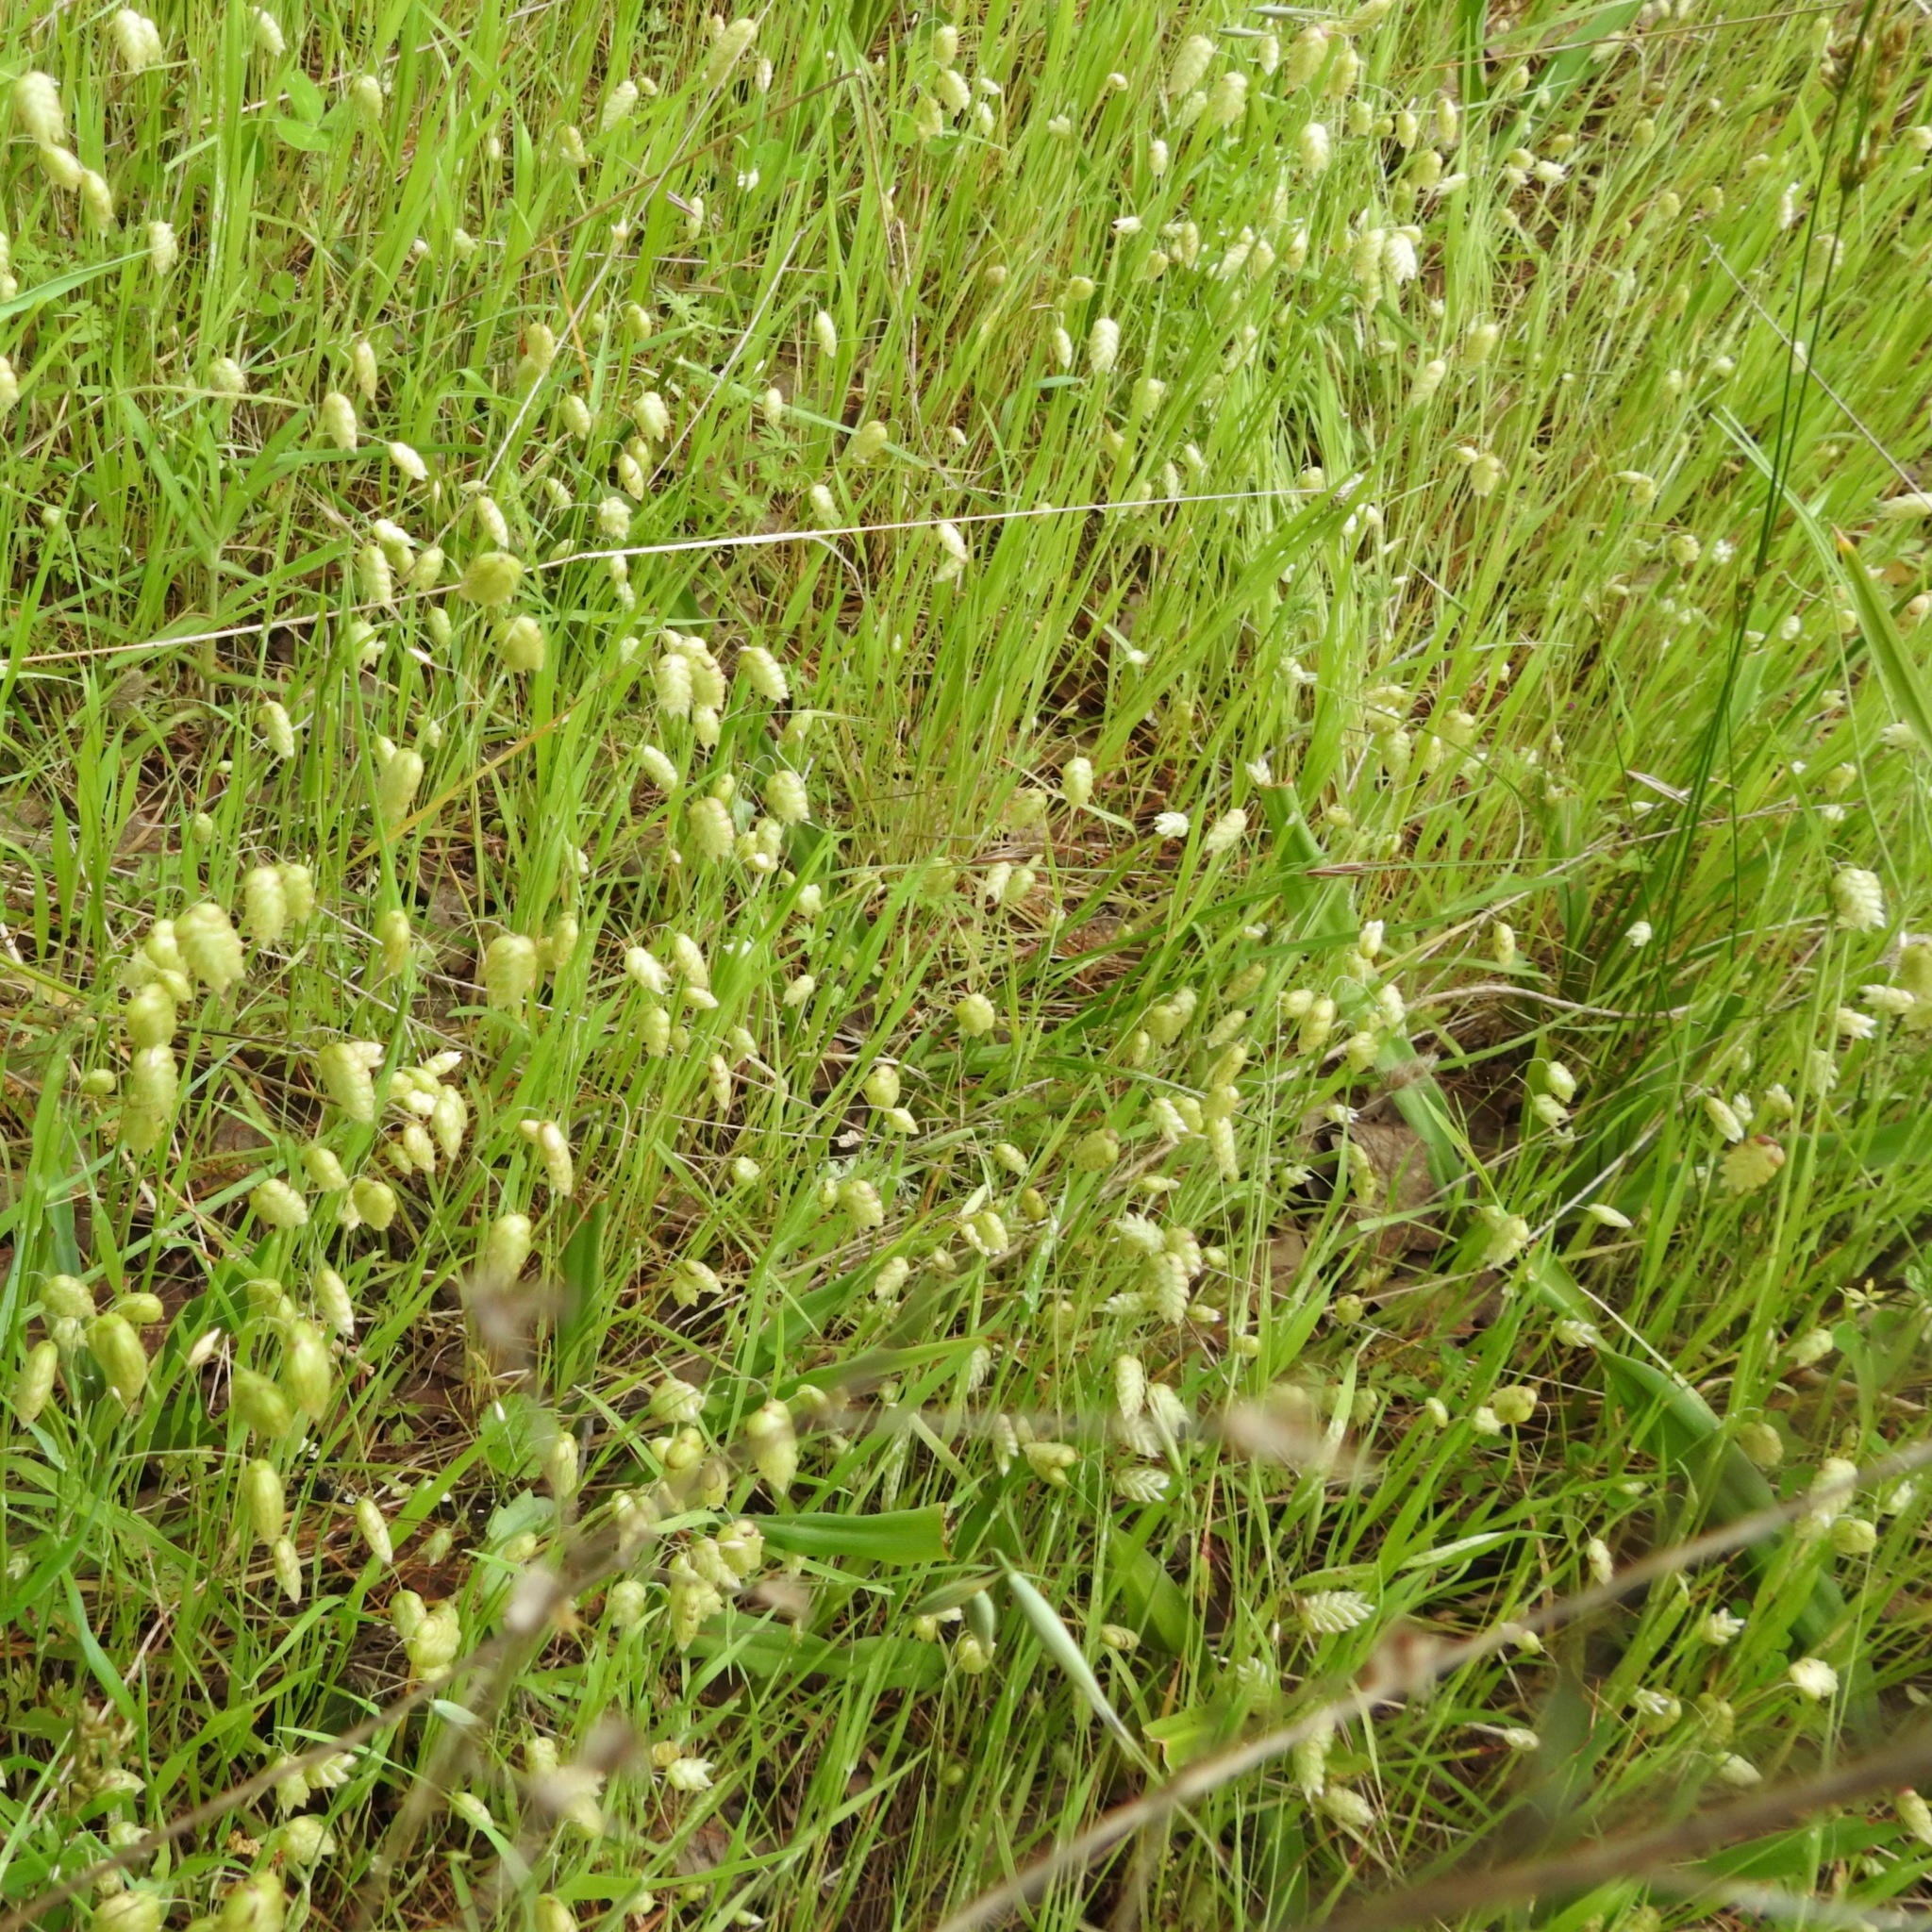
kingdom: Plantae
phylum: Tracheophyta
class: Liliopsida
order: Poales
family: Poaceae
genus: Briza
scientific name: Briza maxima
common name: Big quakinggrass
